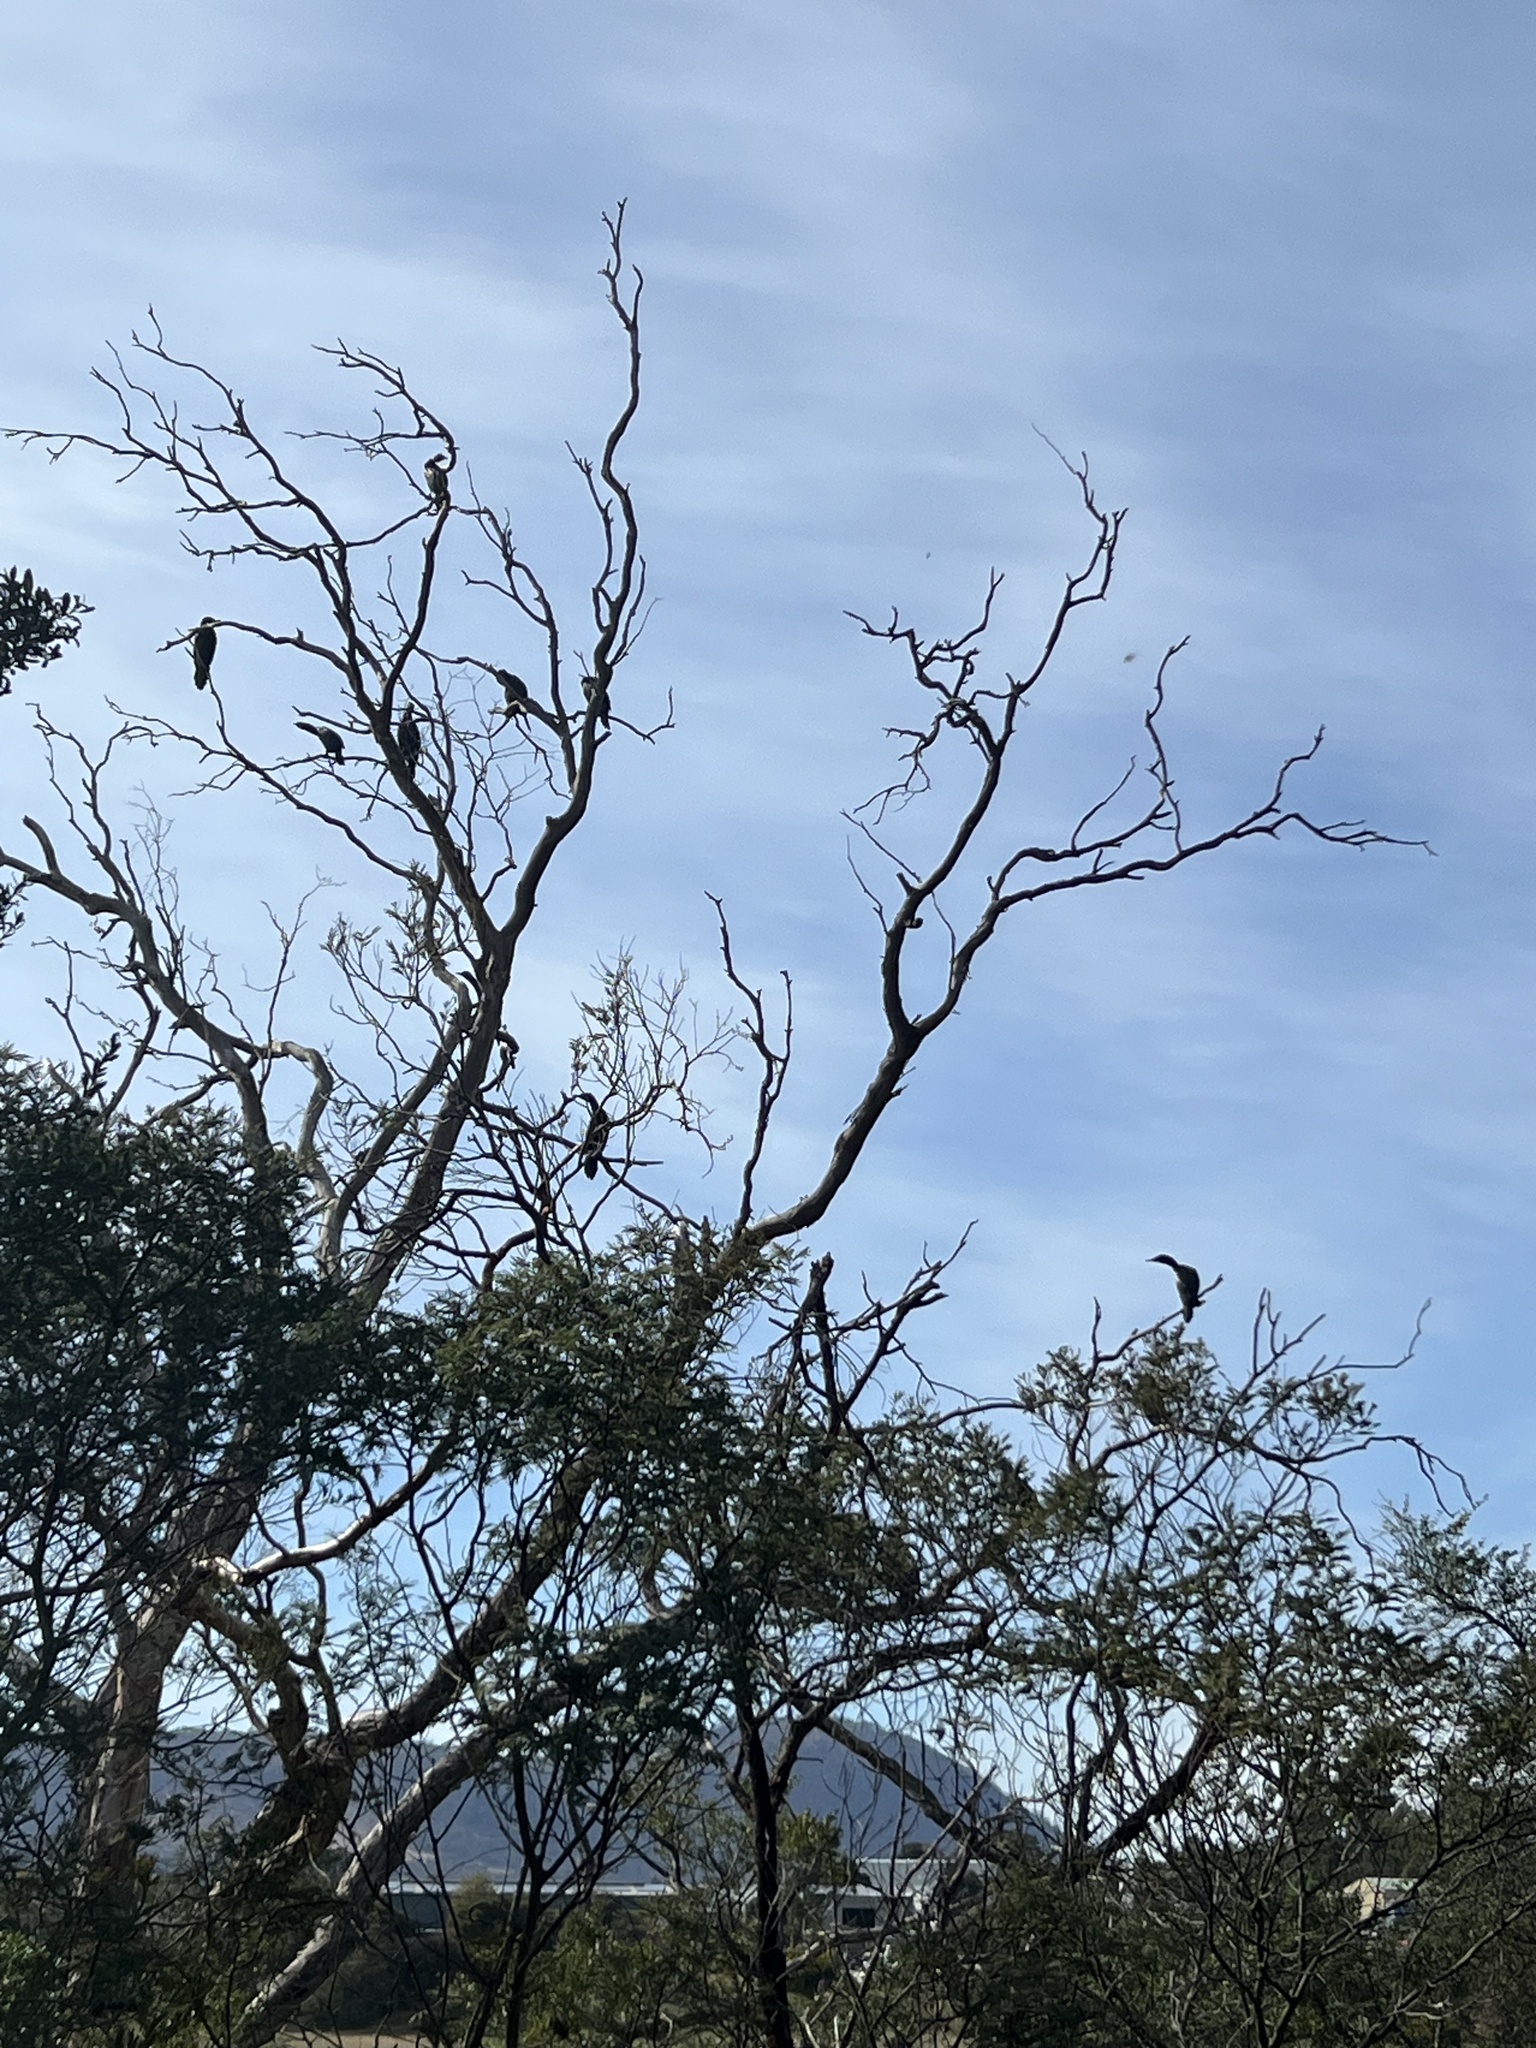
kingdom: Animalia
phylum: Chordata
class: Aves
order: Suliformes
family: Phalacrocoracidae
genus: Phalacrocorax
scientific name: Phalacrocorax sulcirostris
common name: Little black cormorant
